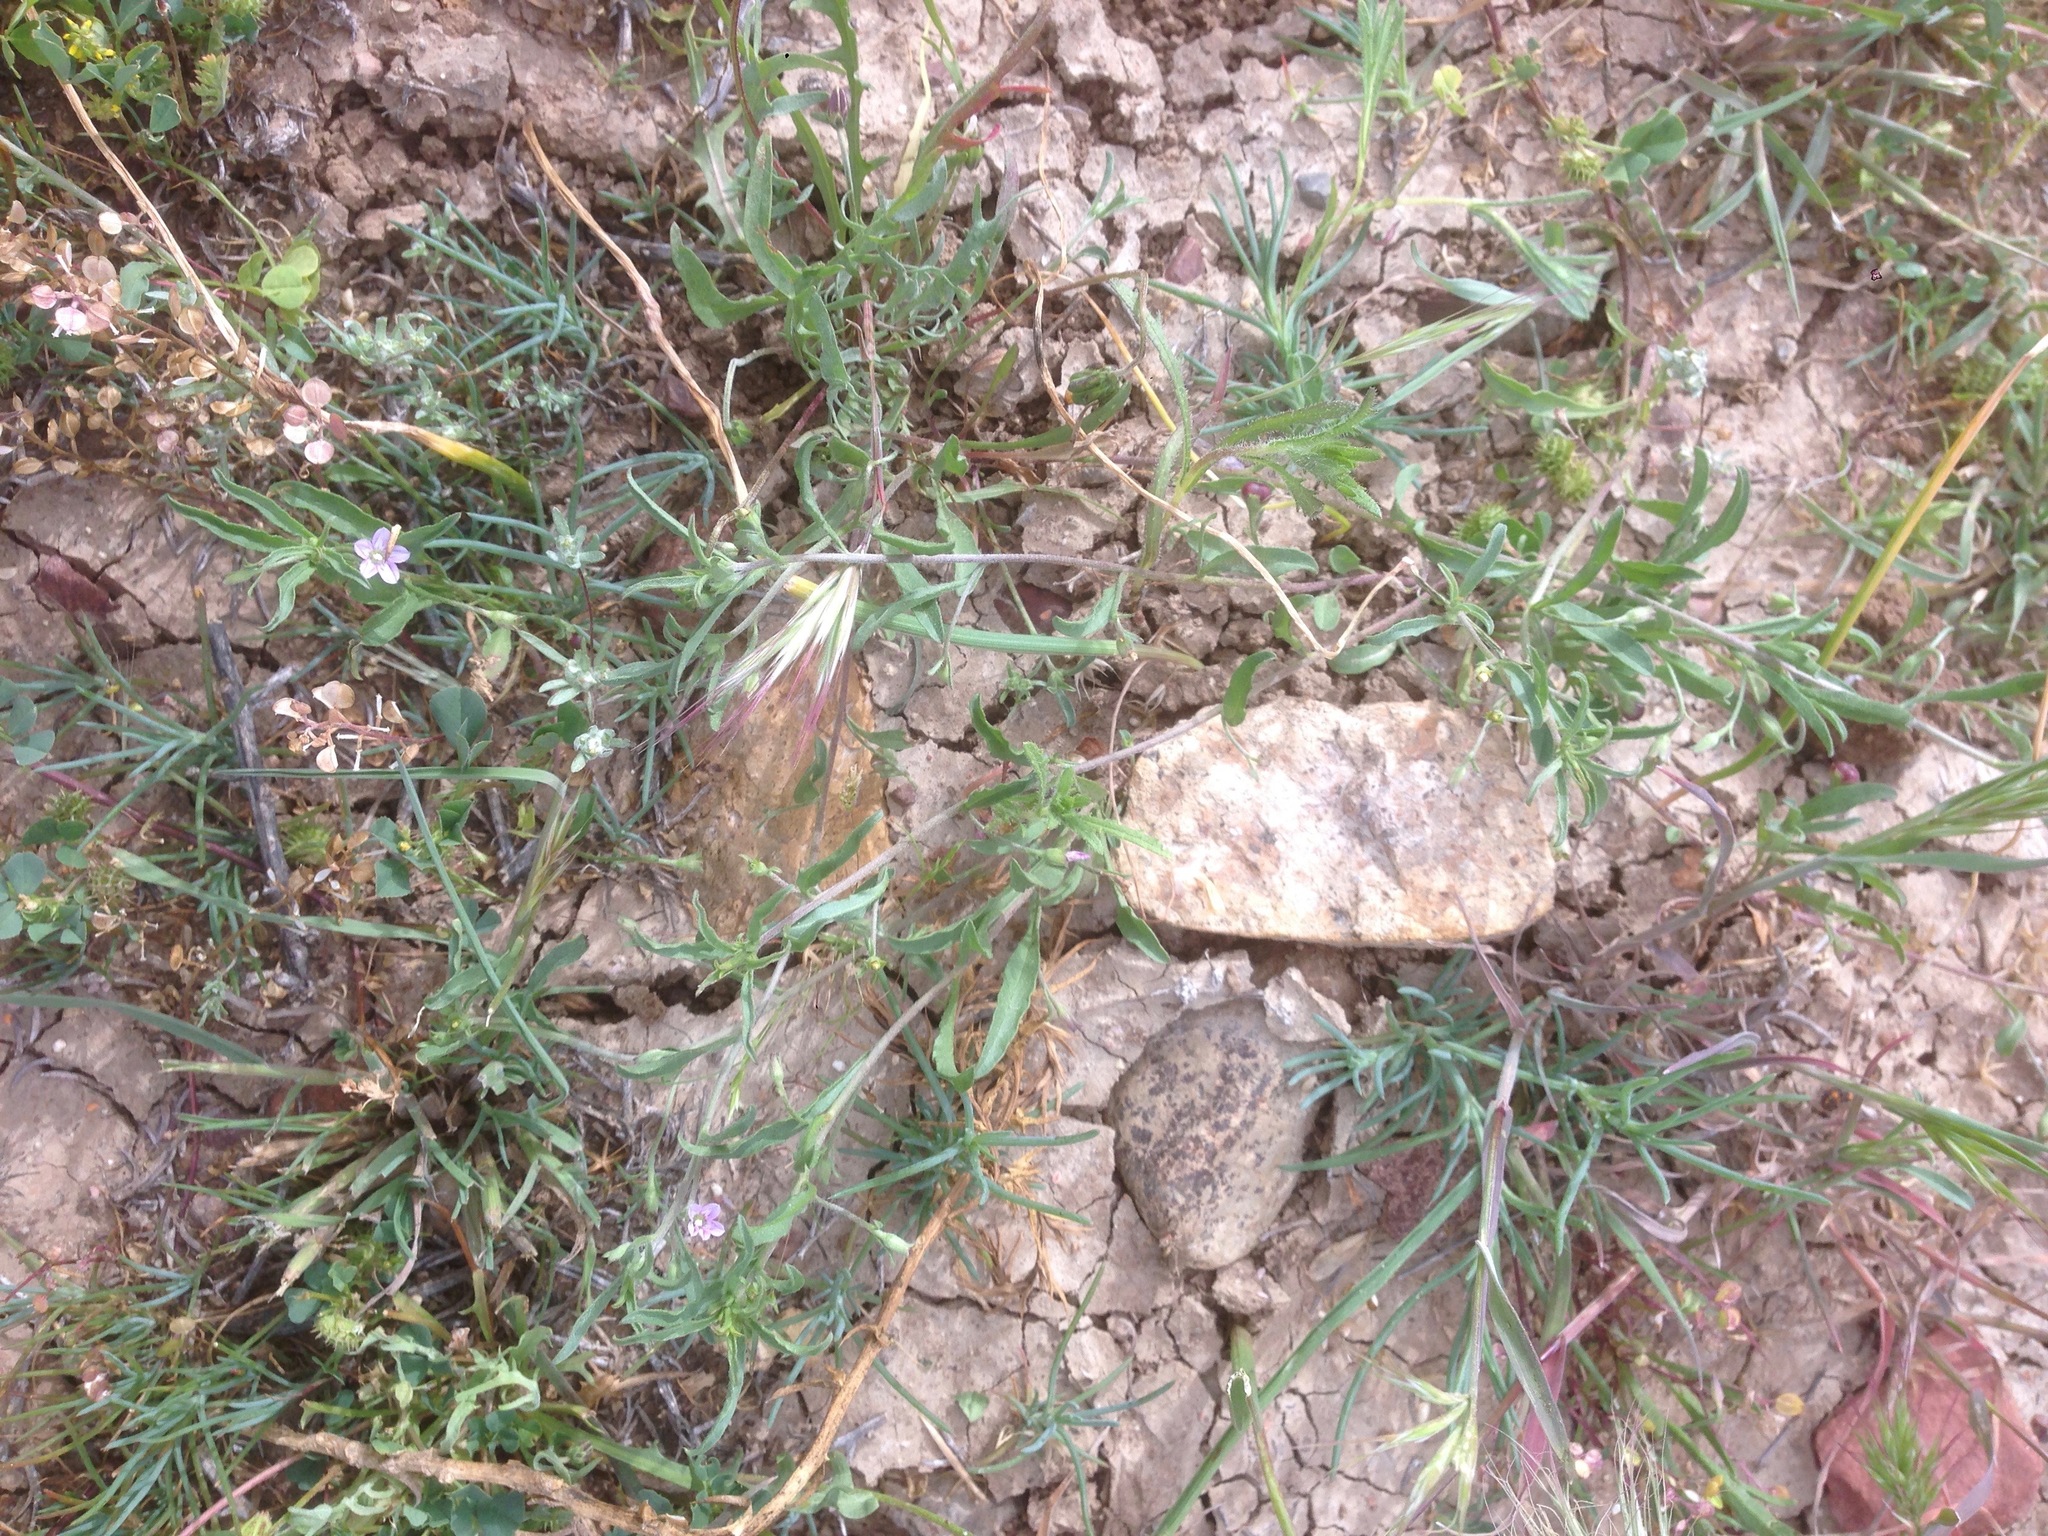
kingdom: Plantae
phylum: Tracheophyta
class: Magnoliopsida
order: Solanales
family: Convolvulaceae
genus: Convolvulus
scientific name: Convolvulus simulans
